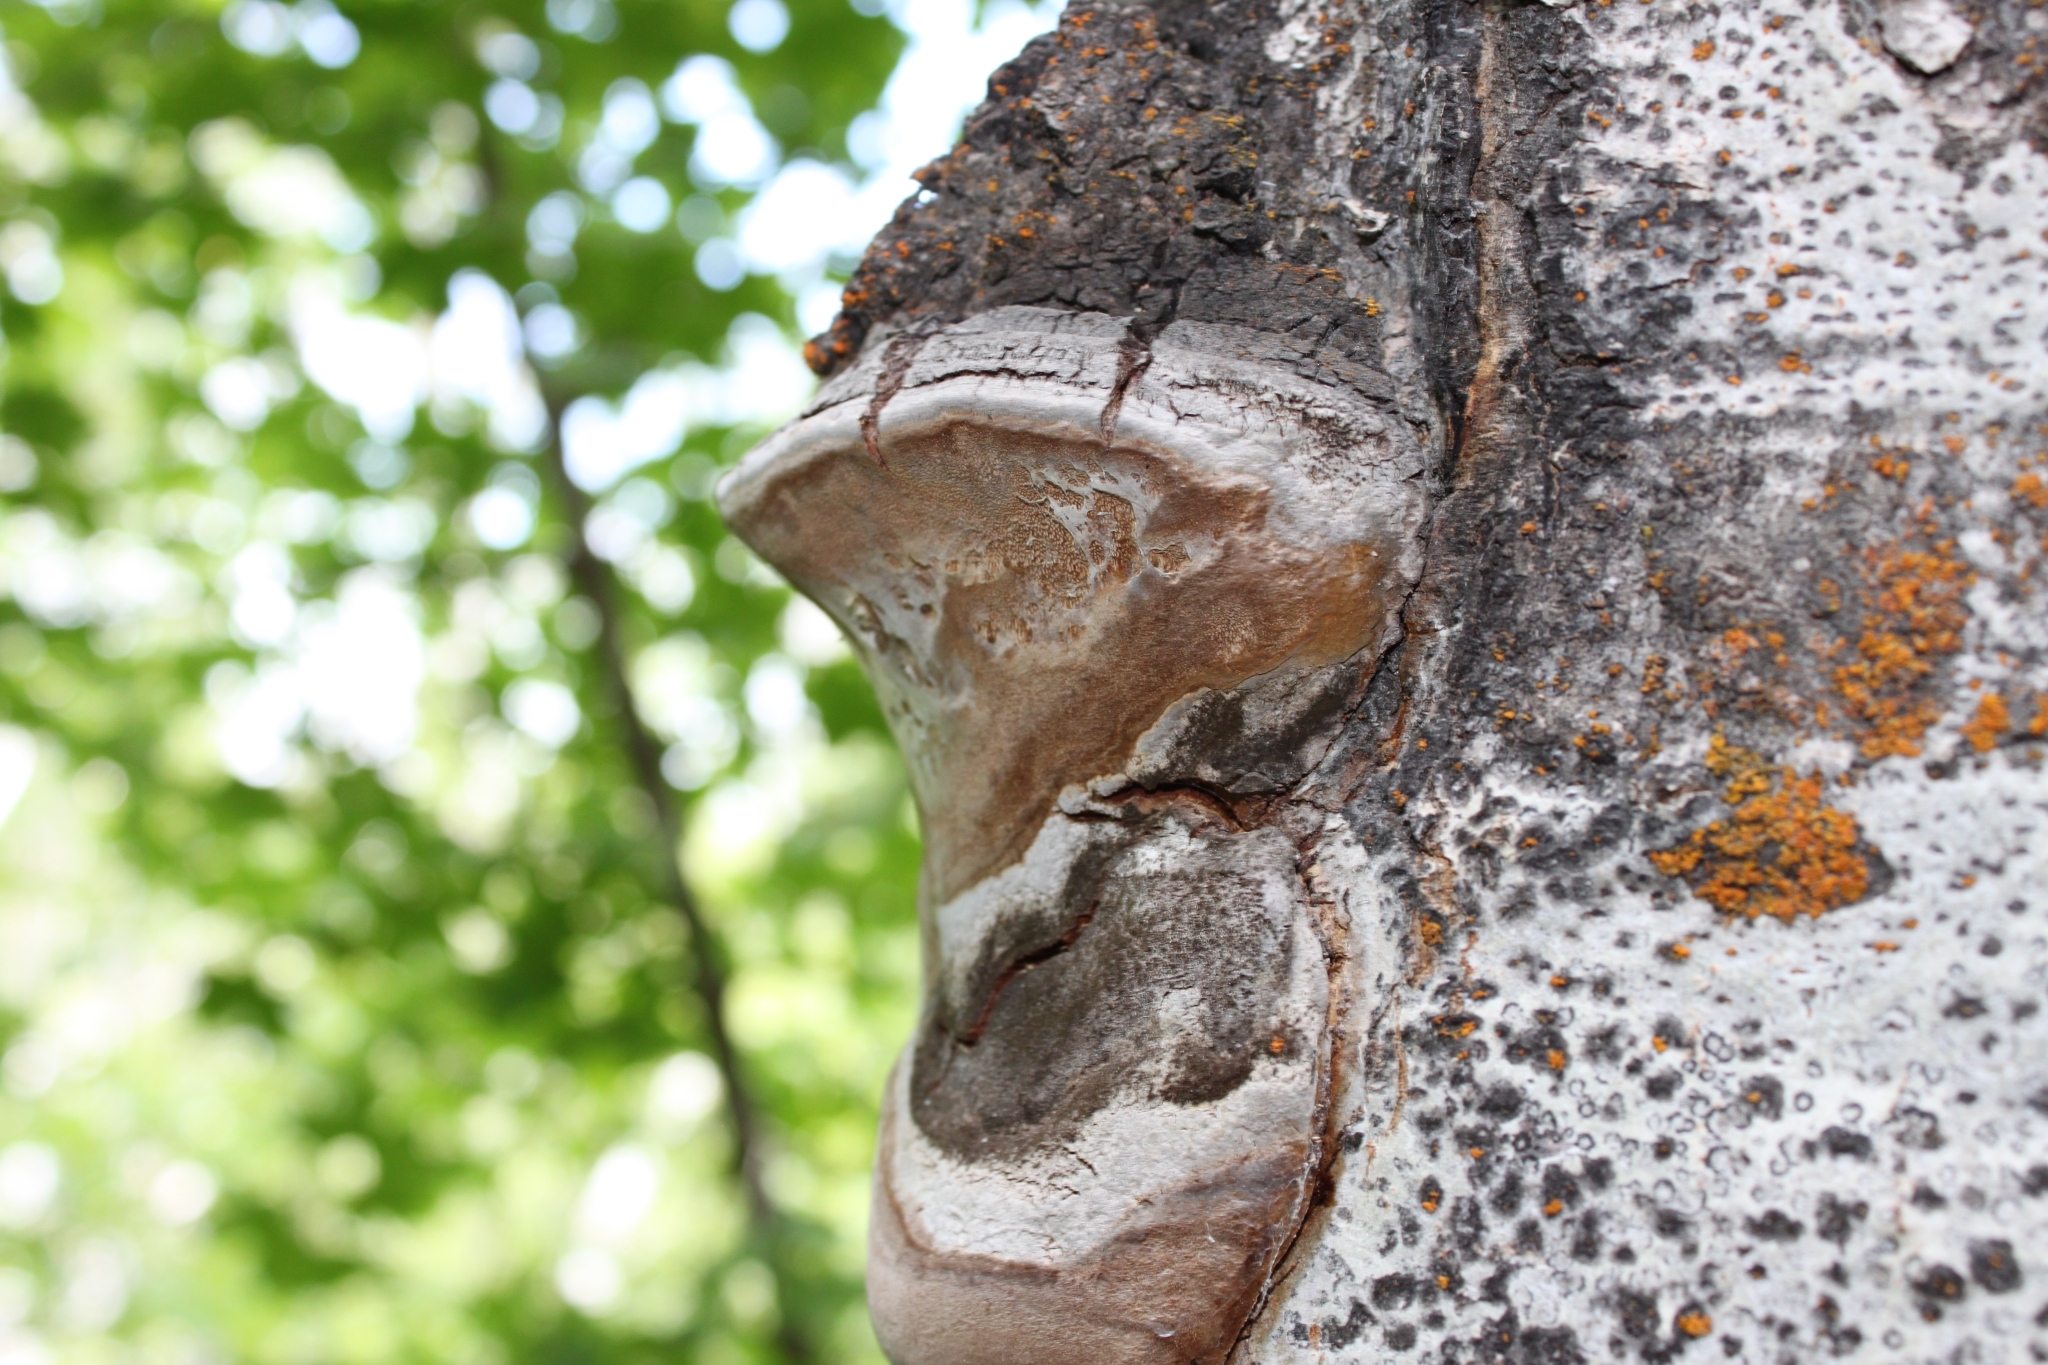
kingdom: Fungi
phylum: Basidiomycota
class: Agaricomycetes
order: Hymenochaetales
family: Hymenochaetaceae
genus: Phellinus
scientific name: Phellinus tremulae
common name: Aspen bracket
